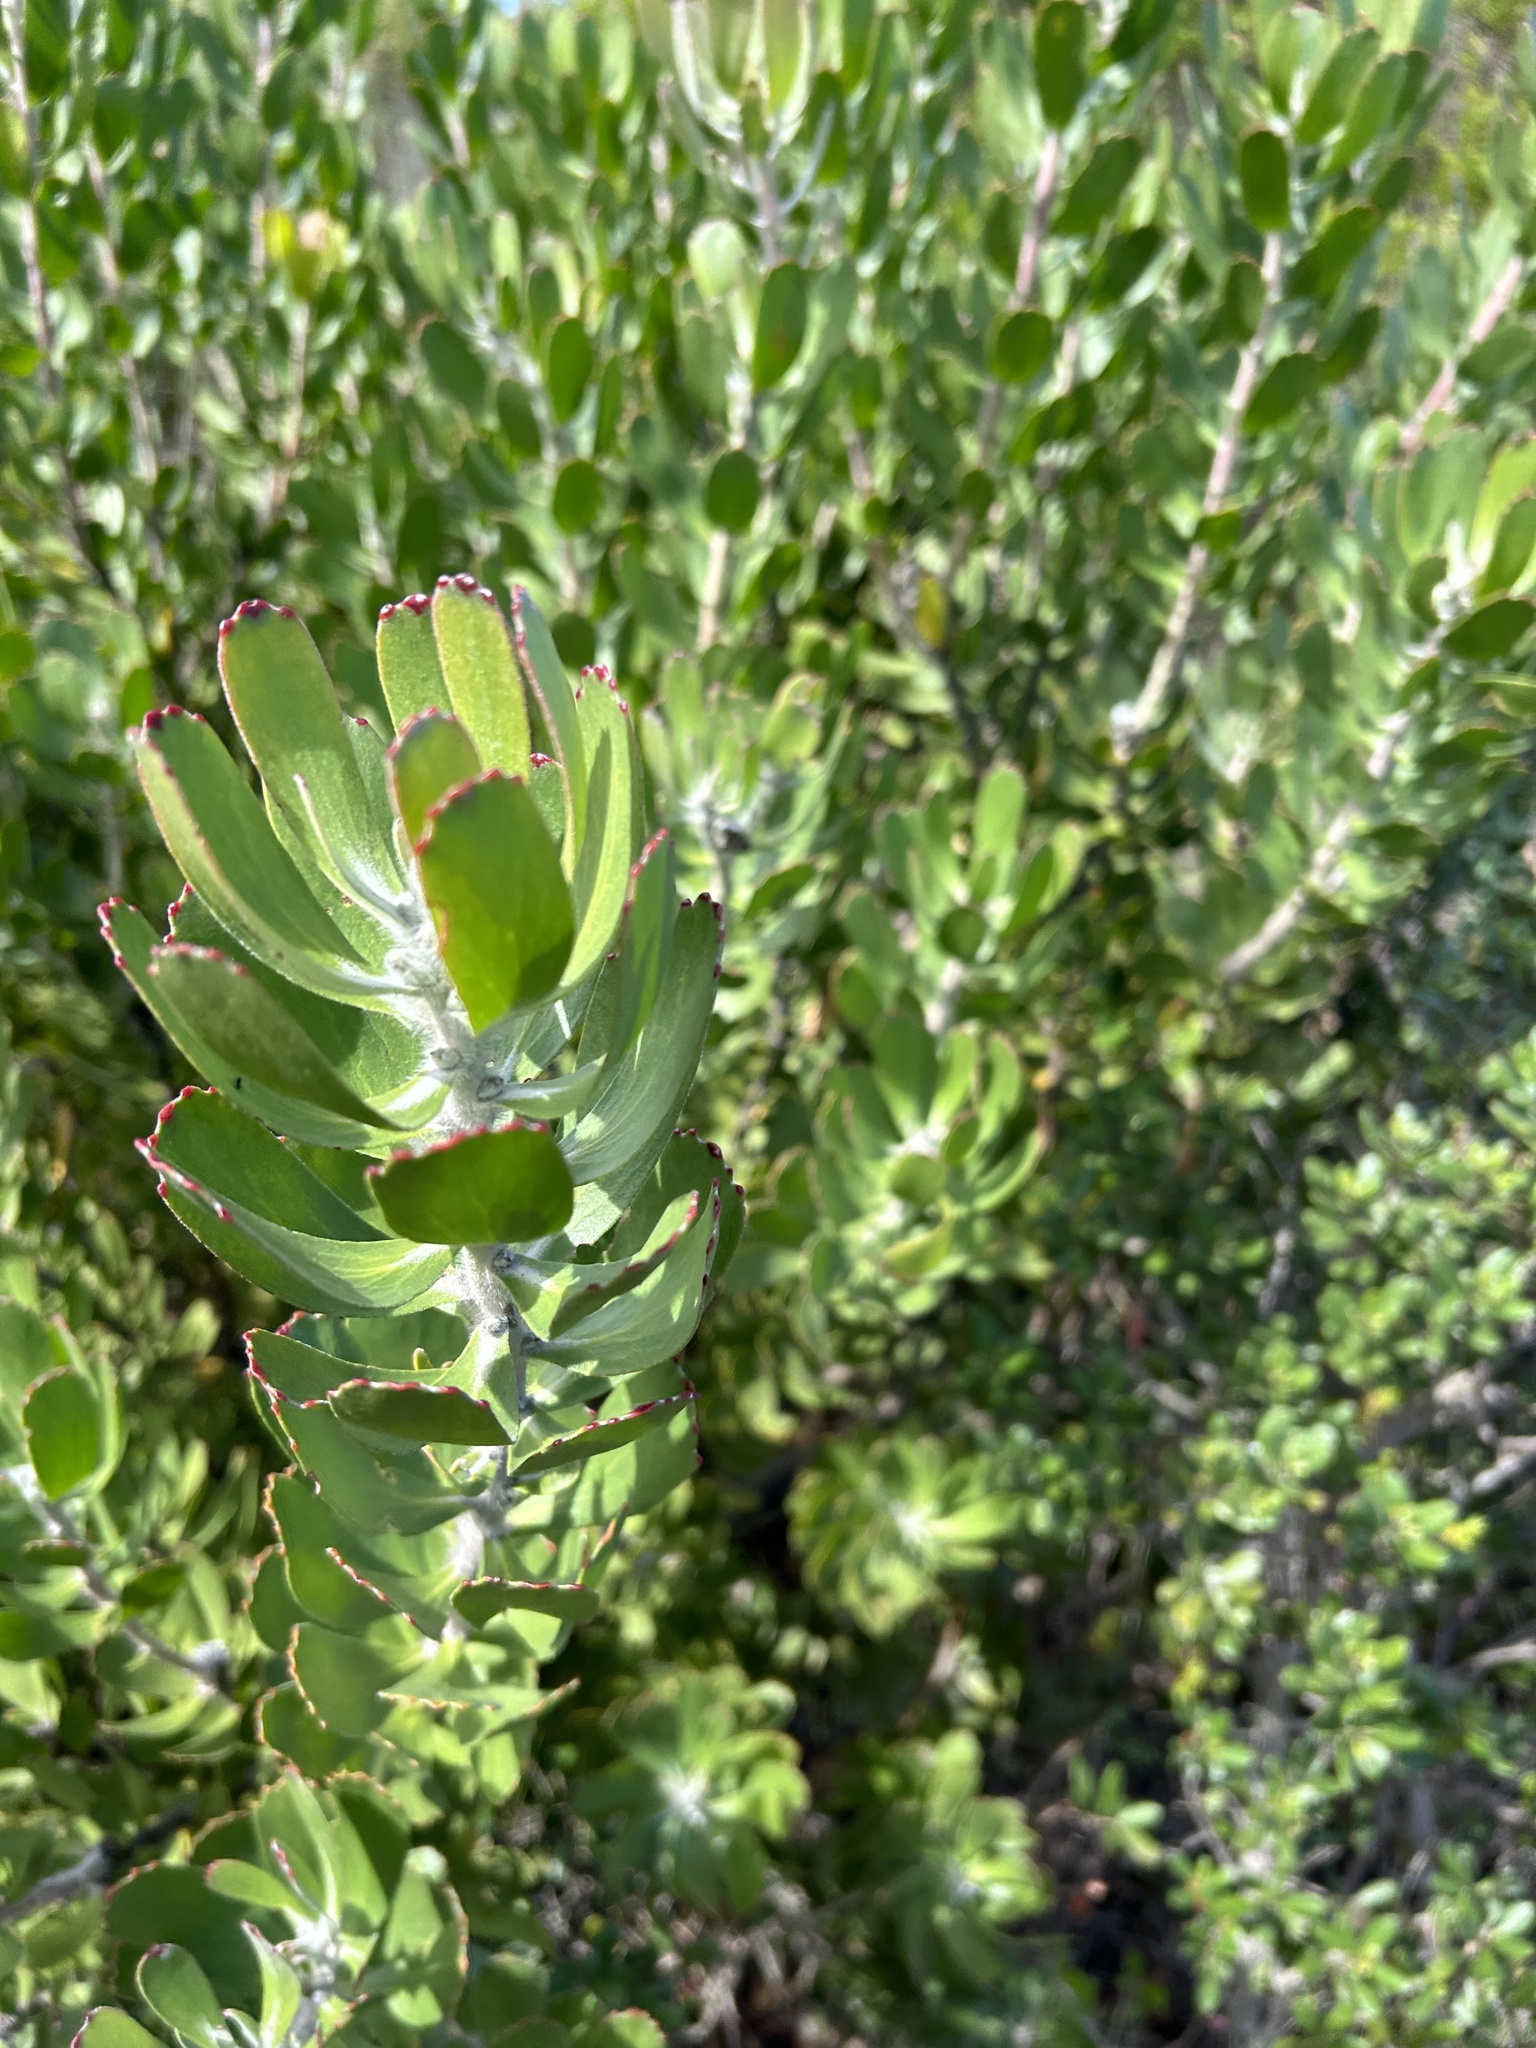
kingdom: Plantae
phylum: Tracheophyta
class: Magnoliopsida
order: Proteales
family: Proteaceae
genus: Leucospermum
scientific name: Leucospermum praecox
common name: Mossel bay pincushion
